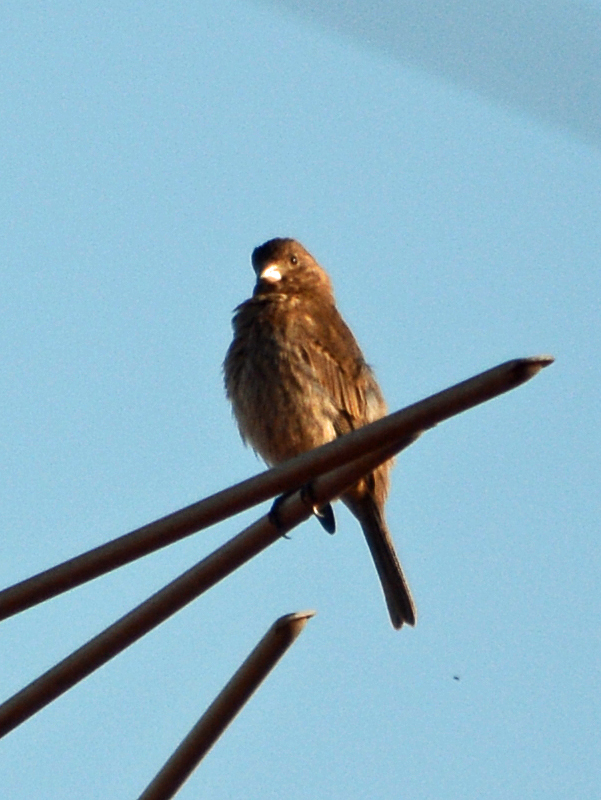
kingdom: Animalia
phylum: Chordata
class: Aves
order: Passeriformes
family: Fringillidae
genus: Haemorhous
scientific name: Haemorhous mexicanus
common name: House finch
